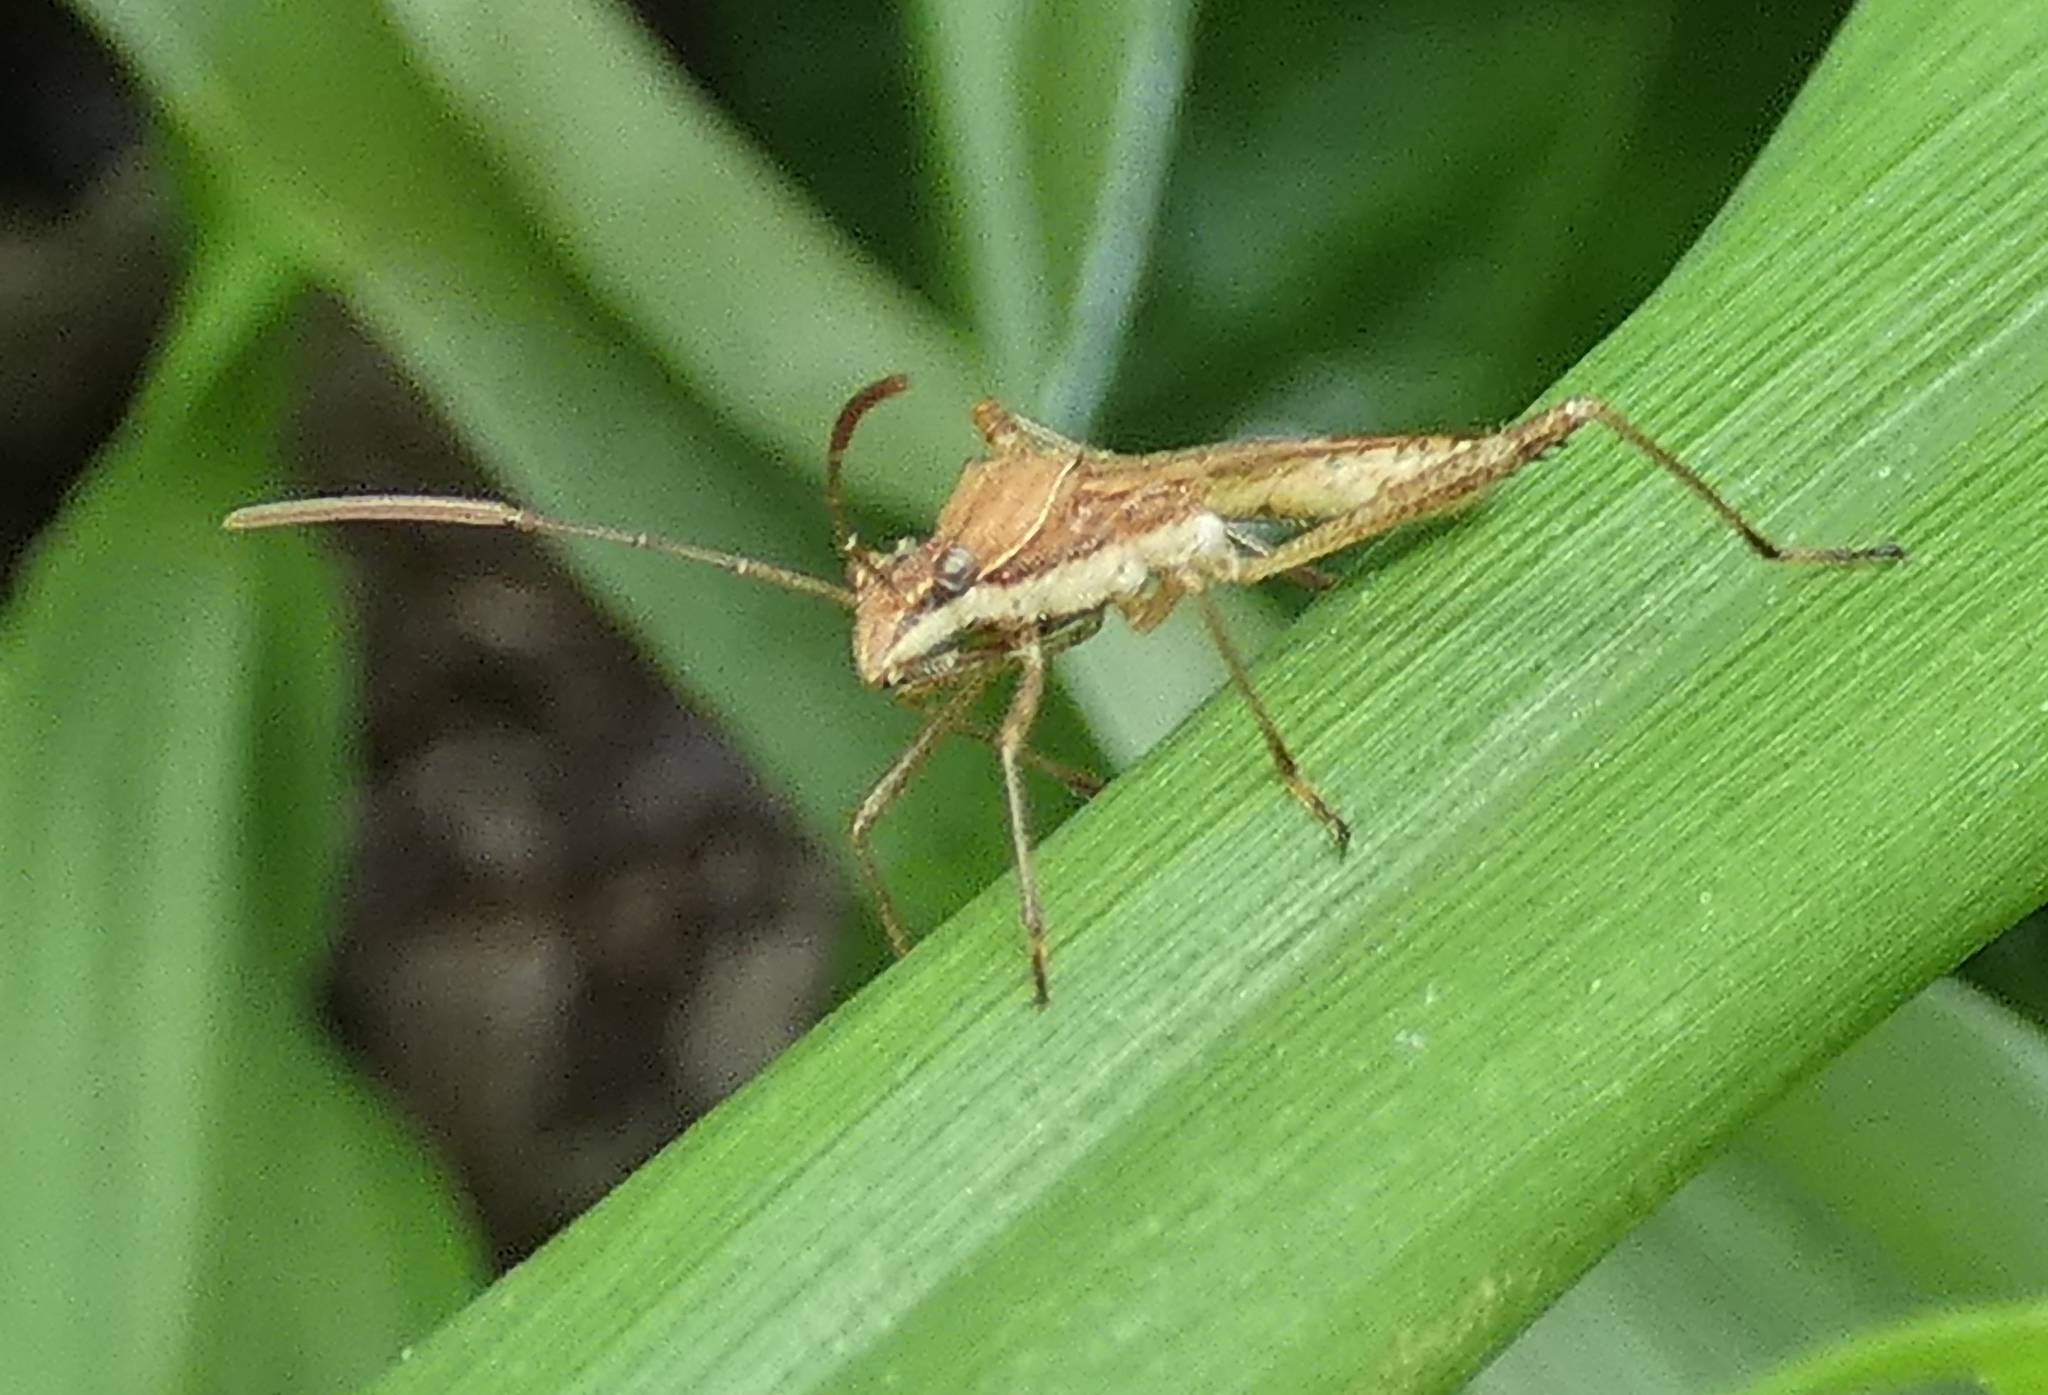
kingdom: Animalia
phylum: Arthropoda
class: Insecta
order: Hemiptera
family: Alydidae
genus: Neomegalotomus
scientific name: Neomegalotomus parvus
